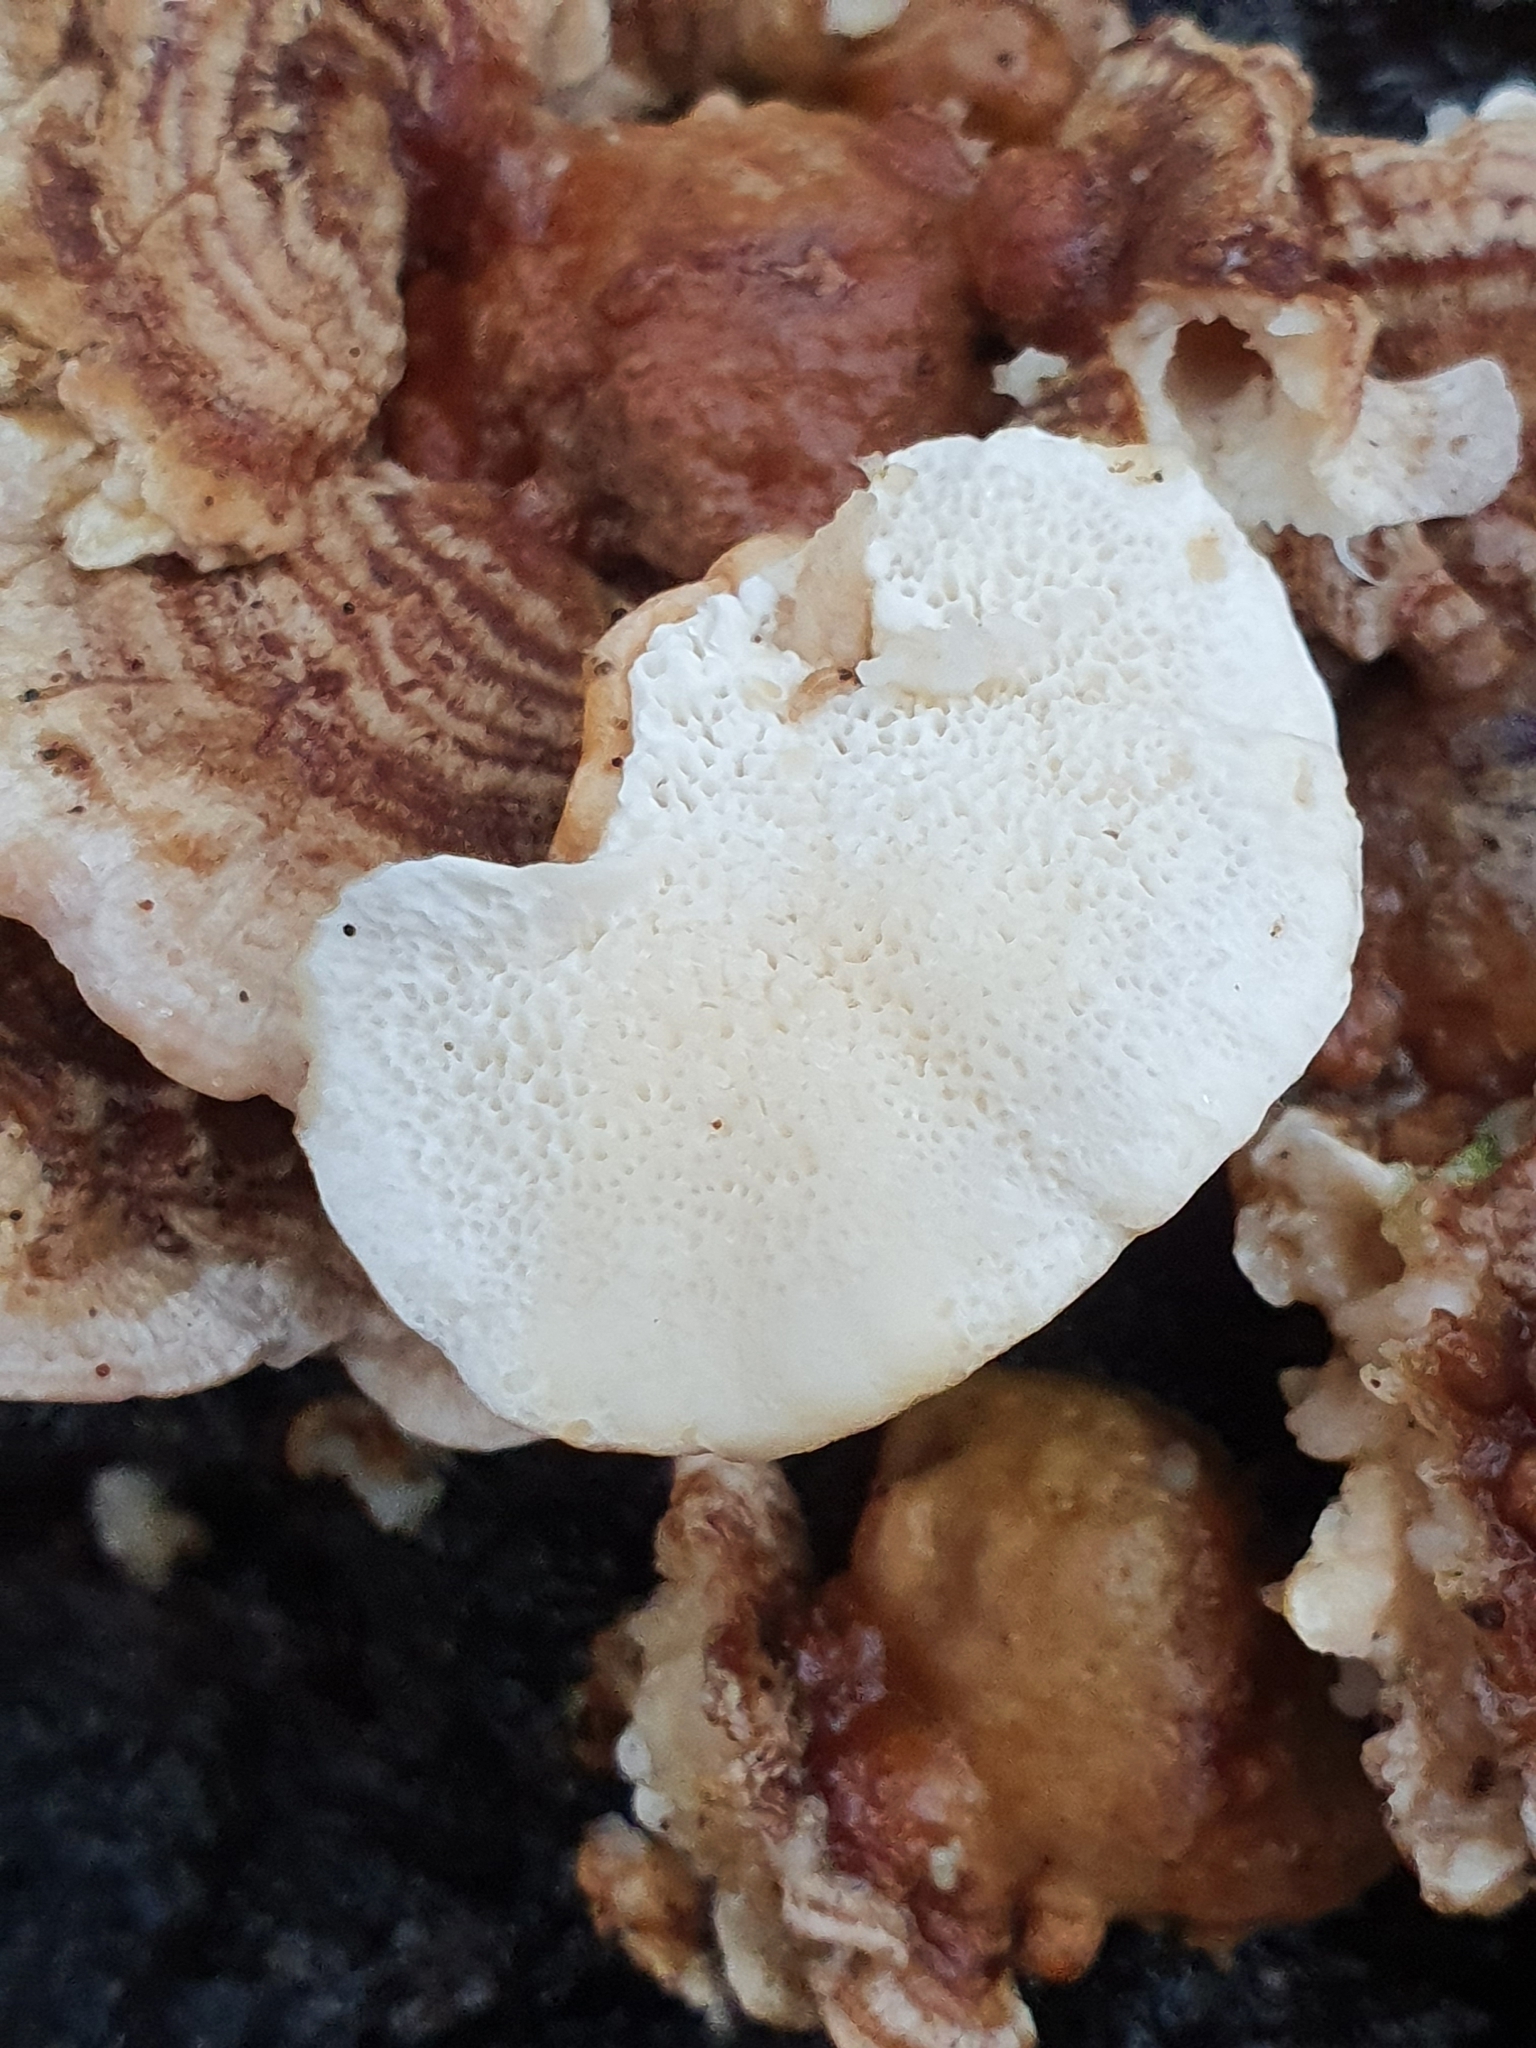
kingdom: Fungi
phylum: Basidiomycota
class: Agaricomycetes
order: Polyporales
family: Polyporaceae
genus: Trametes
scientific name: Trametes ochracea
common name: Ochre bracket
